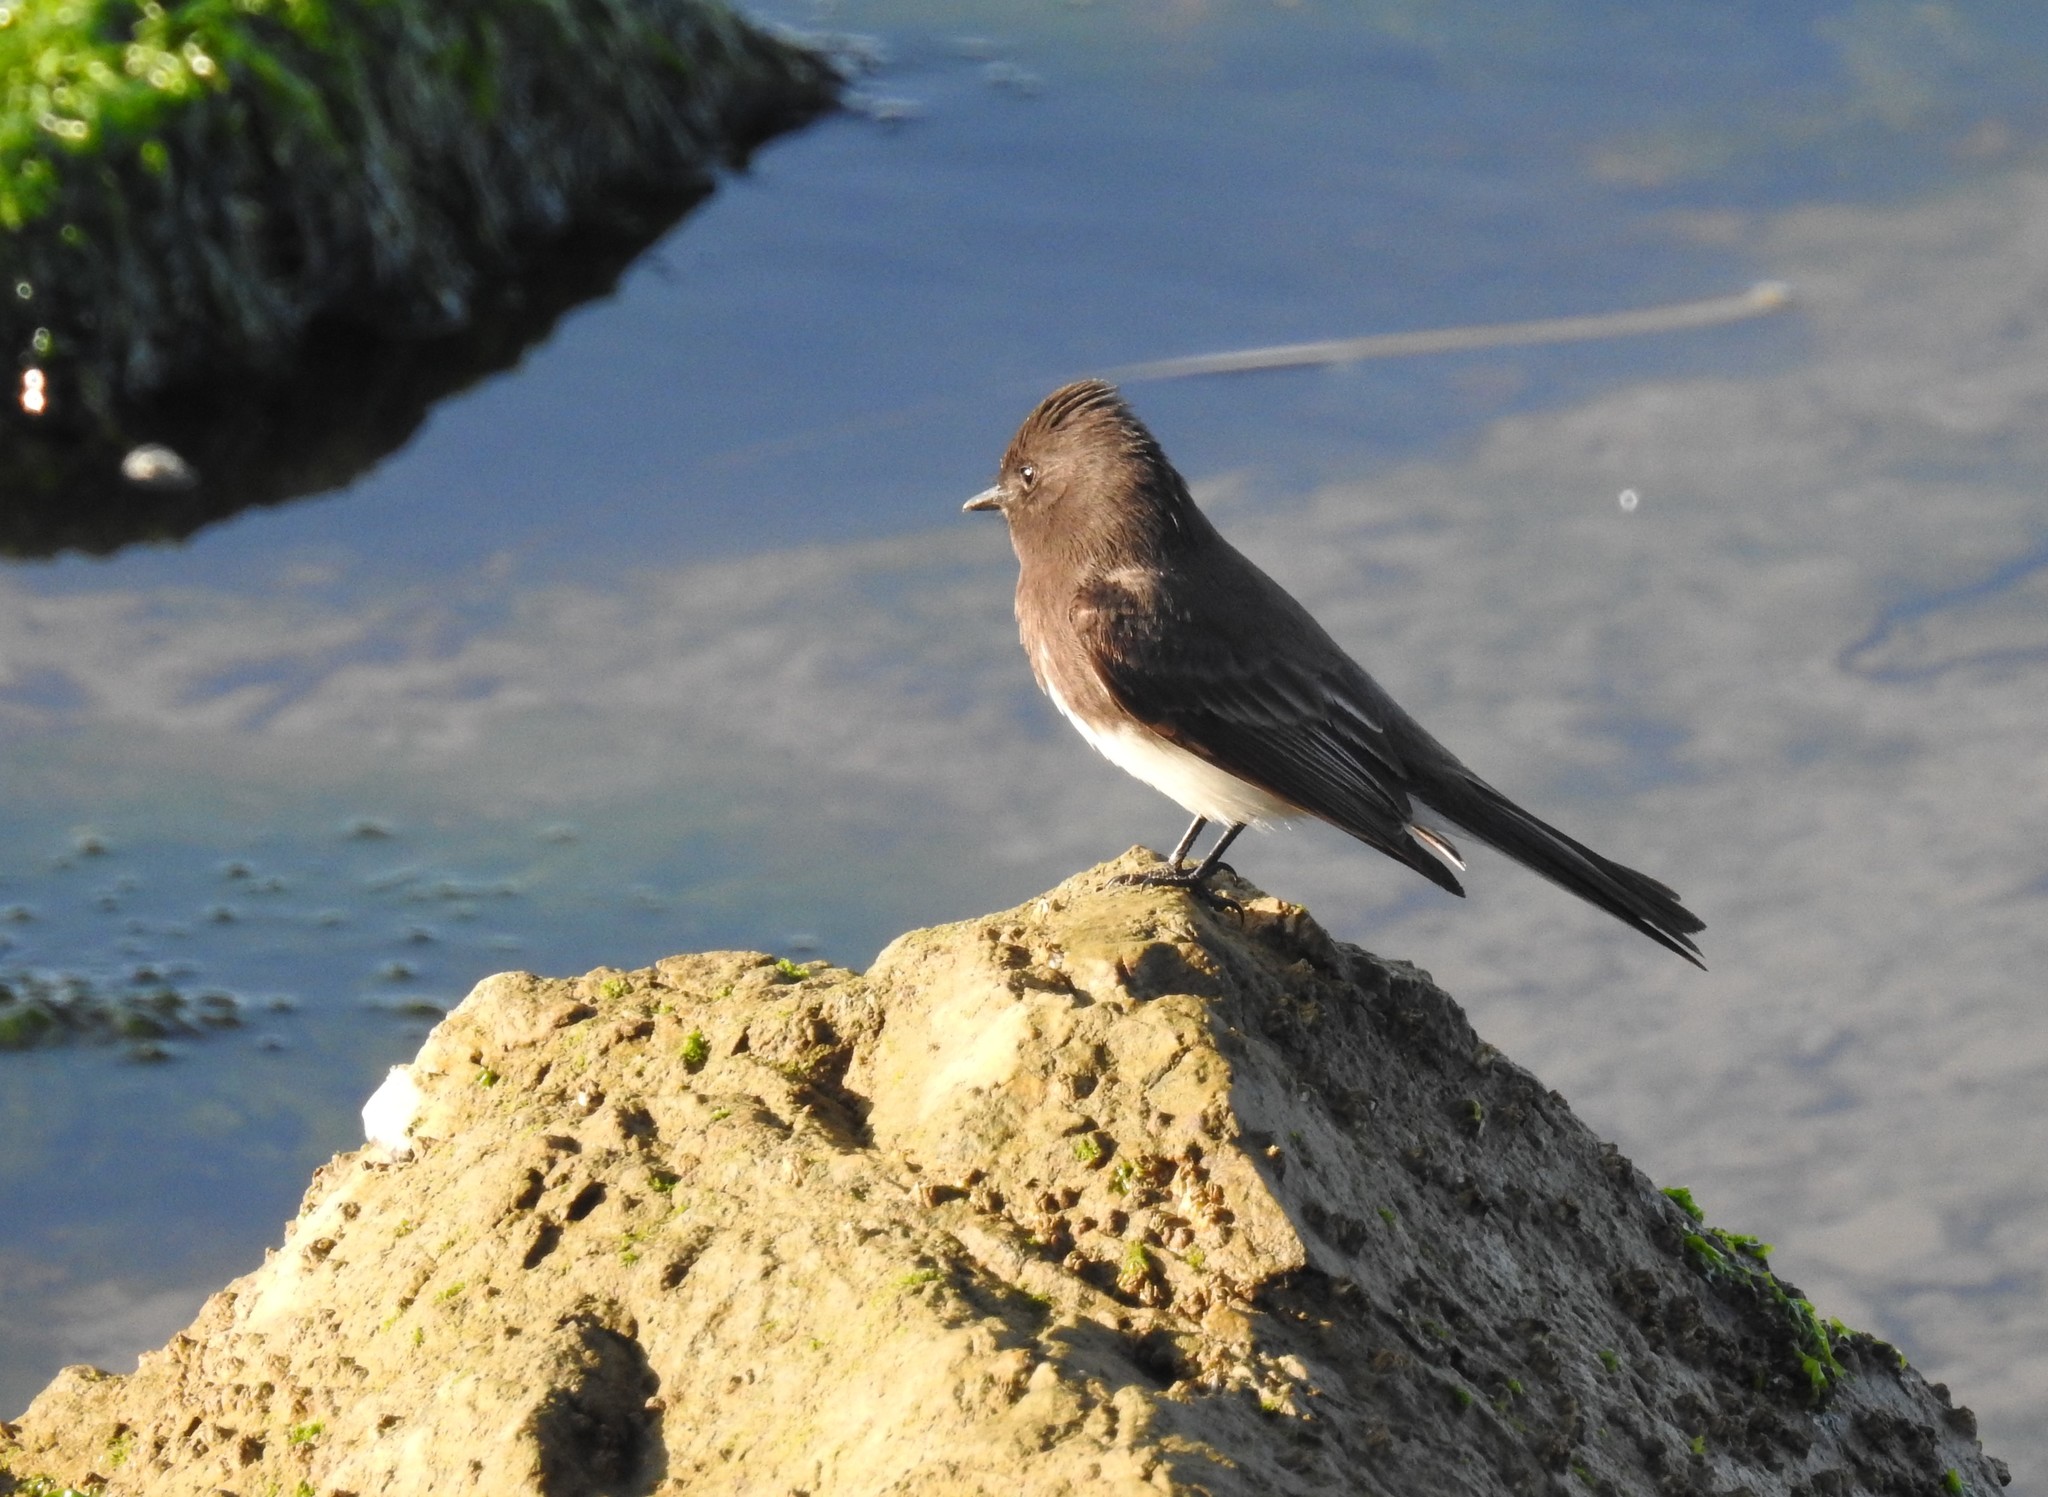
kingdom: Animalia
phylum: Chordata
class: Aves
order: Passeriformes
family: Tyrannidae
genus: Sayornis
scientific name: Sayornis nigricans
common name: Black phoebe
